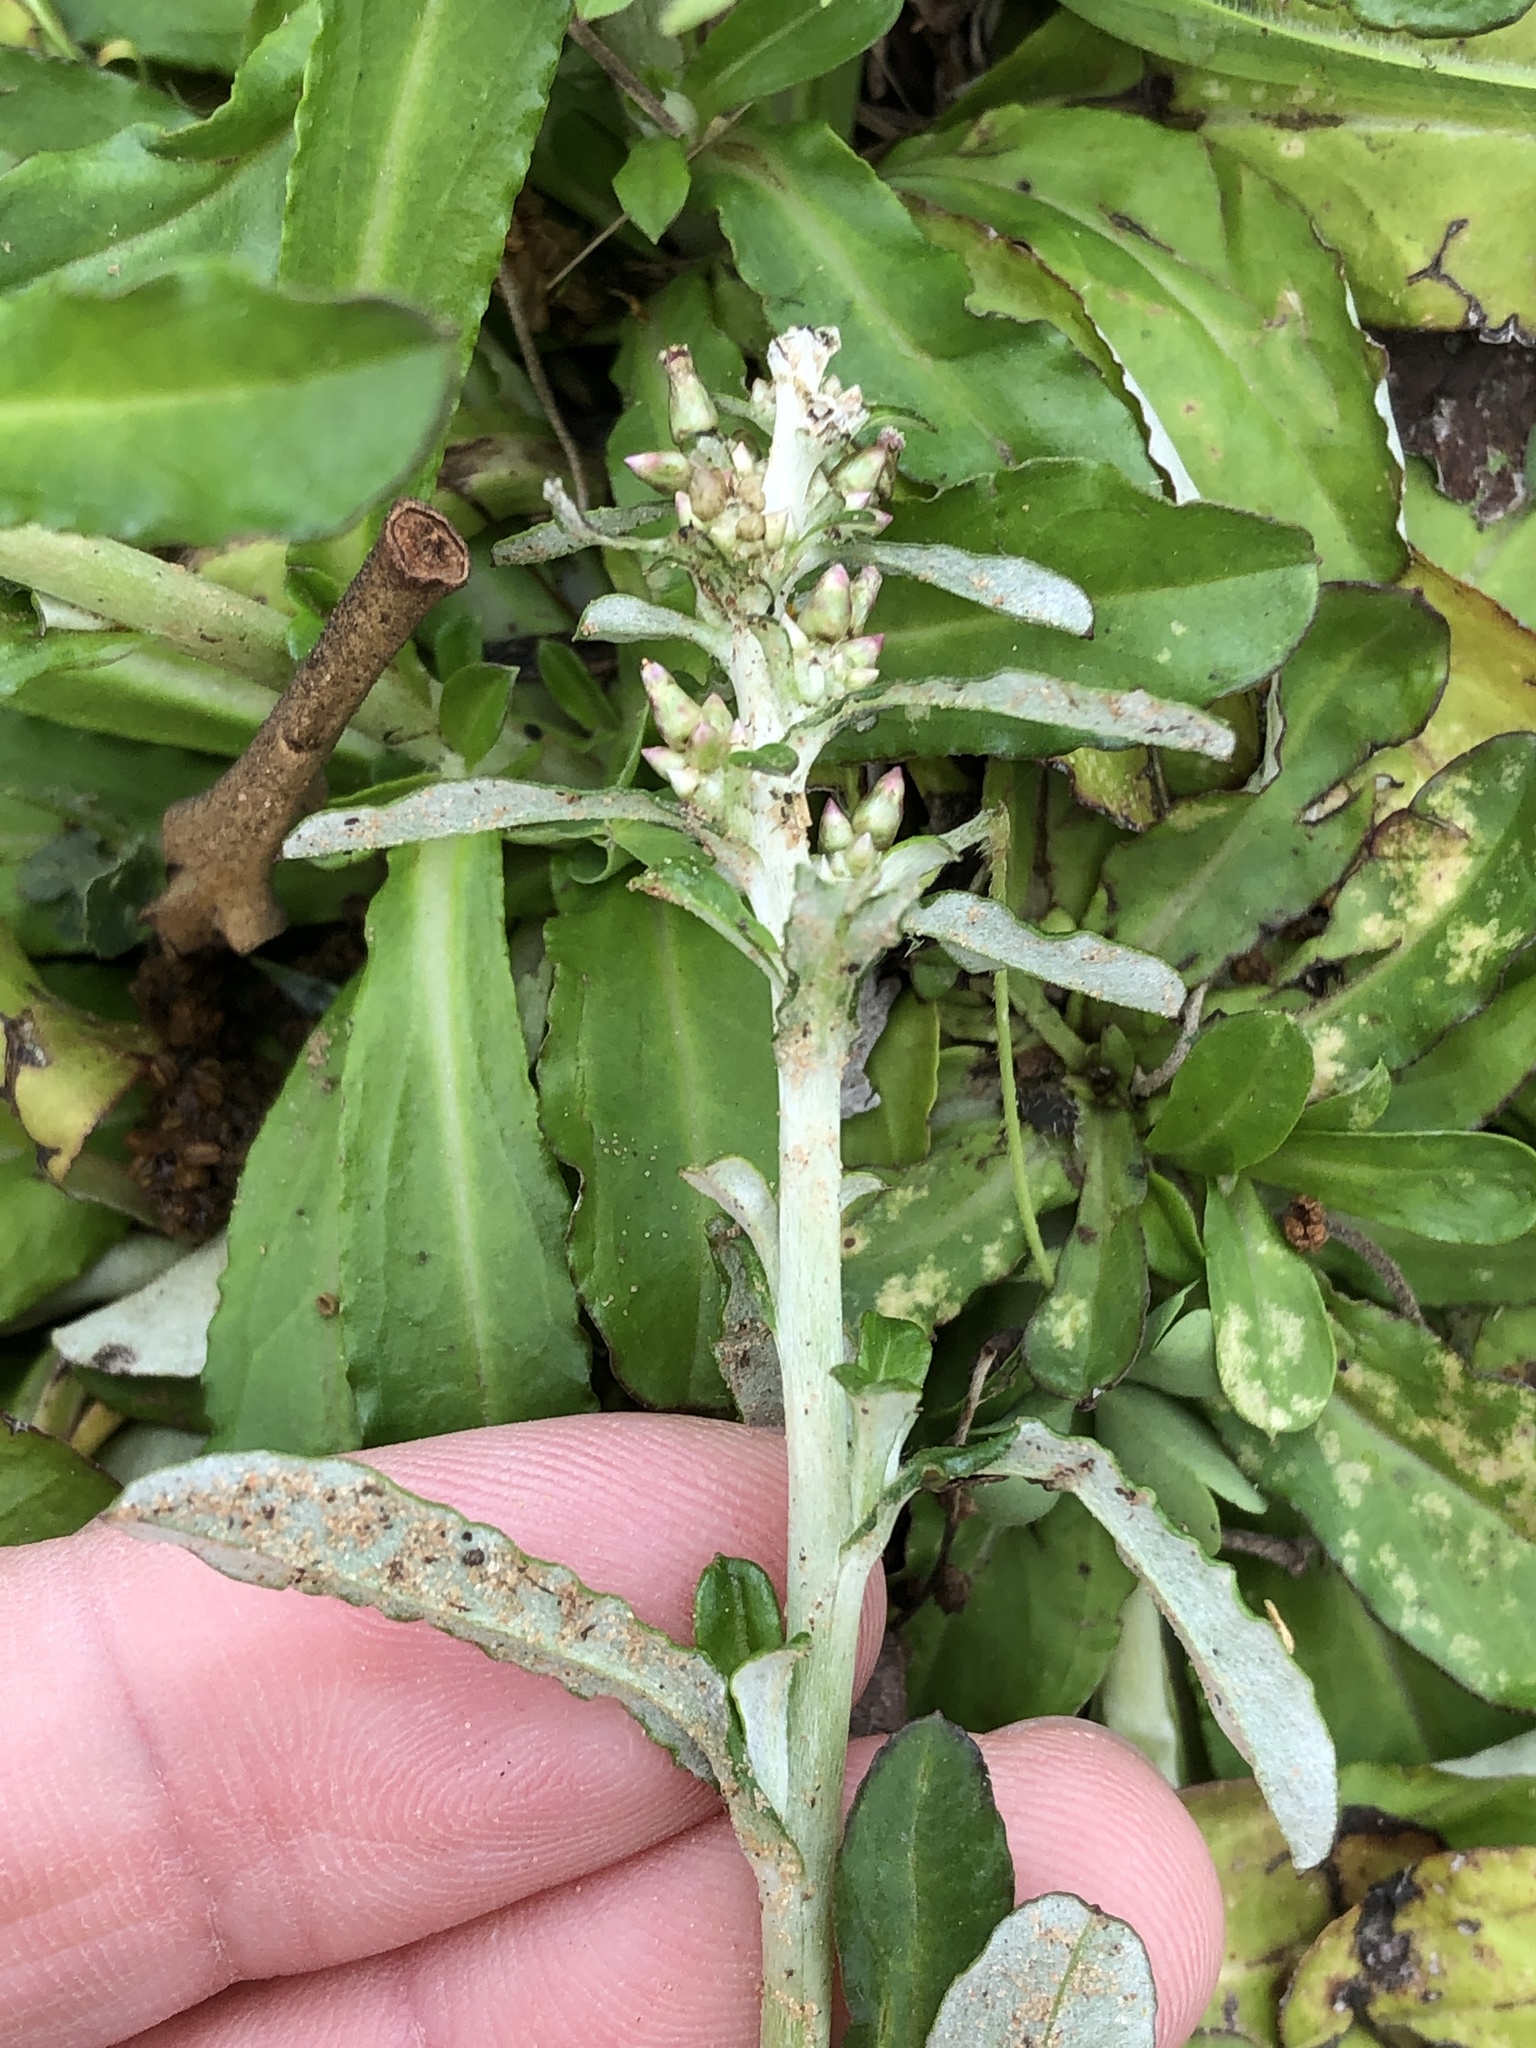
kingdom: Plantae
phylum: Tracheophyta
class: Magnoliopsida
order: Asterales
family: Asteraceae
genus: Gamochaeta
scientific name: Gamochaeta pensylvanica
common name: Pennsylvania everlasting
